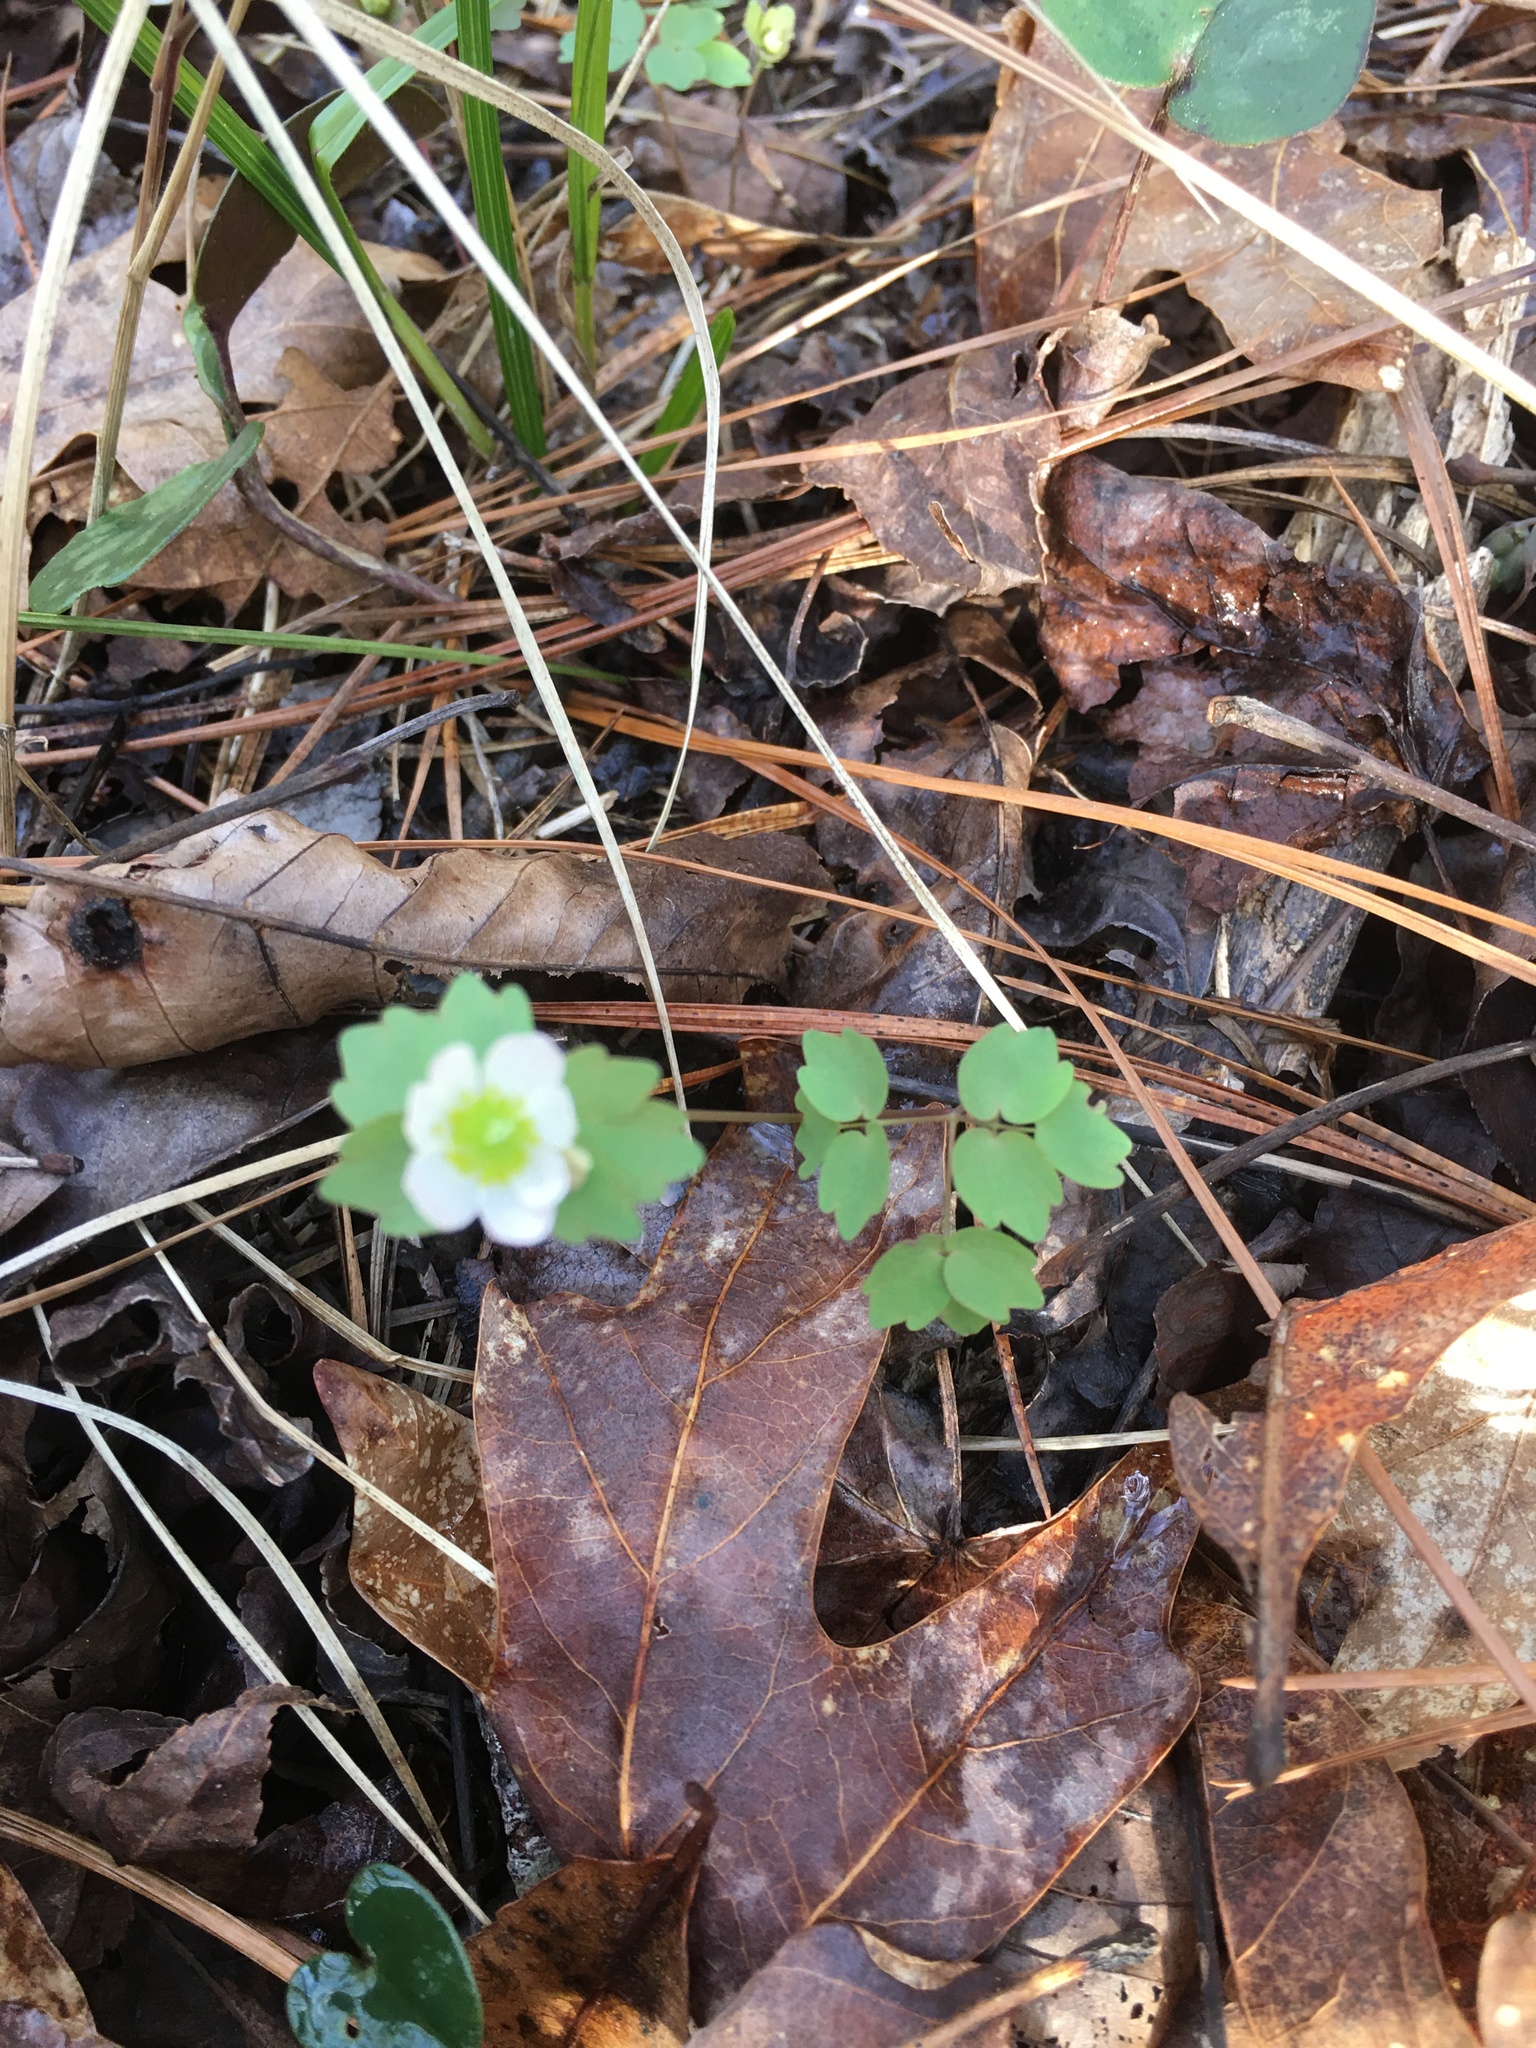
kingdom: Plantae
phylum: Tracheophyta
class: Magnoliopsida
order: Ranunculales
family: Ranunculaceae
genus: Thalictrum
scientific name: Thalictrum thalictroides
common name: Rue-anemone
